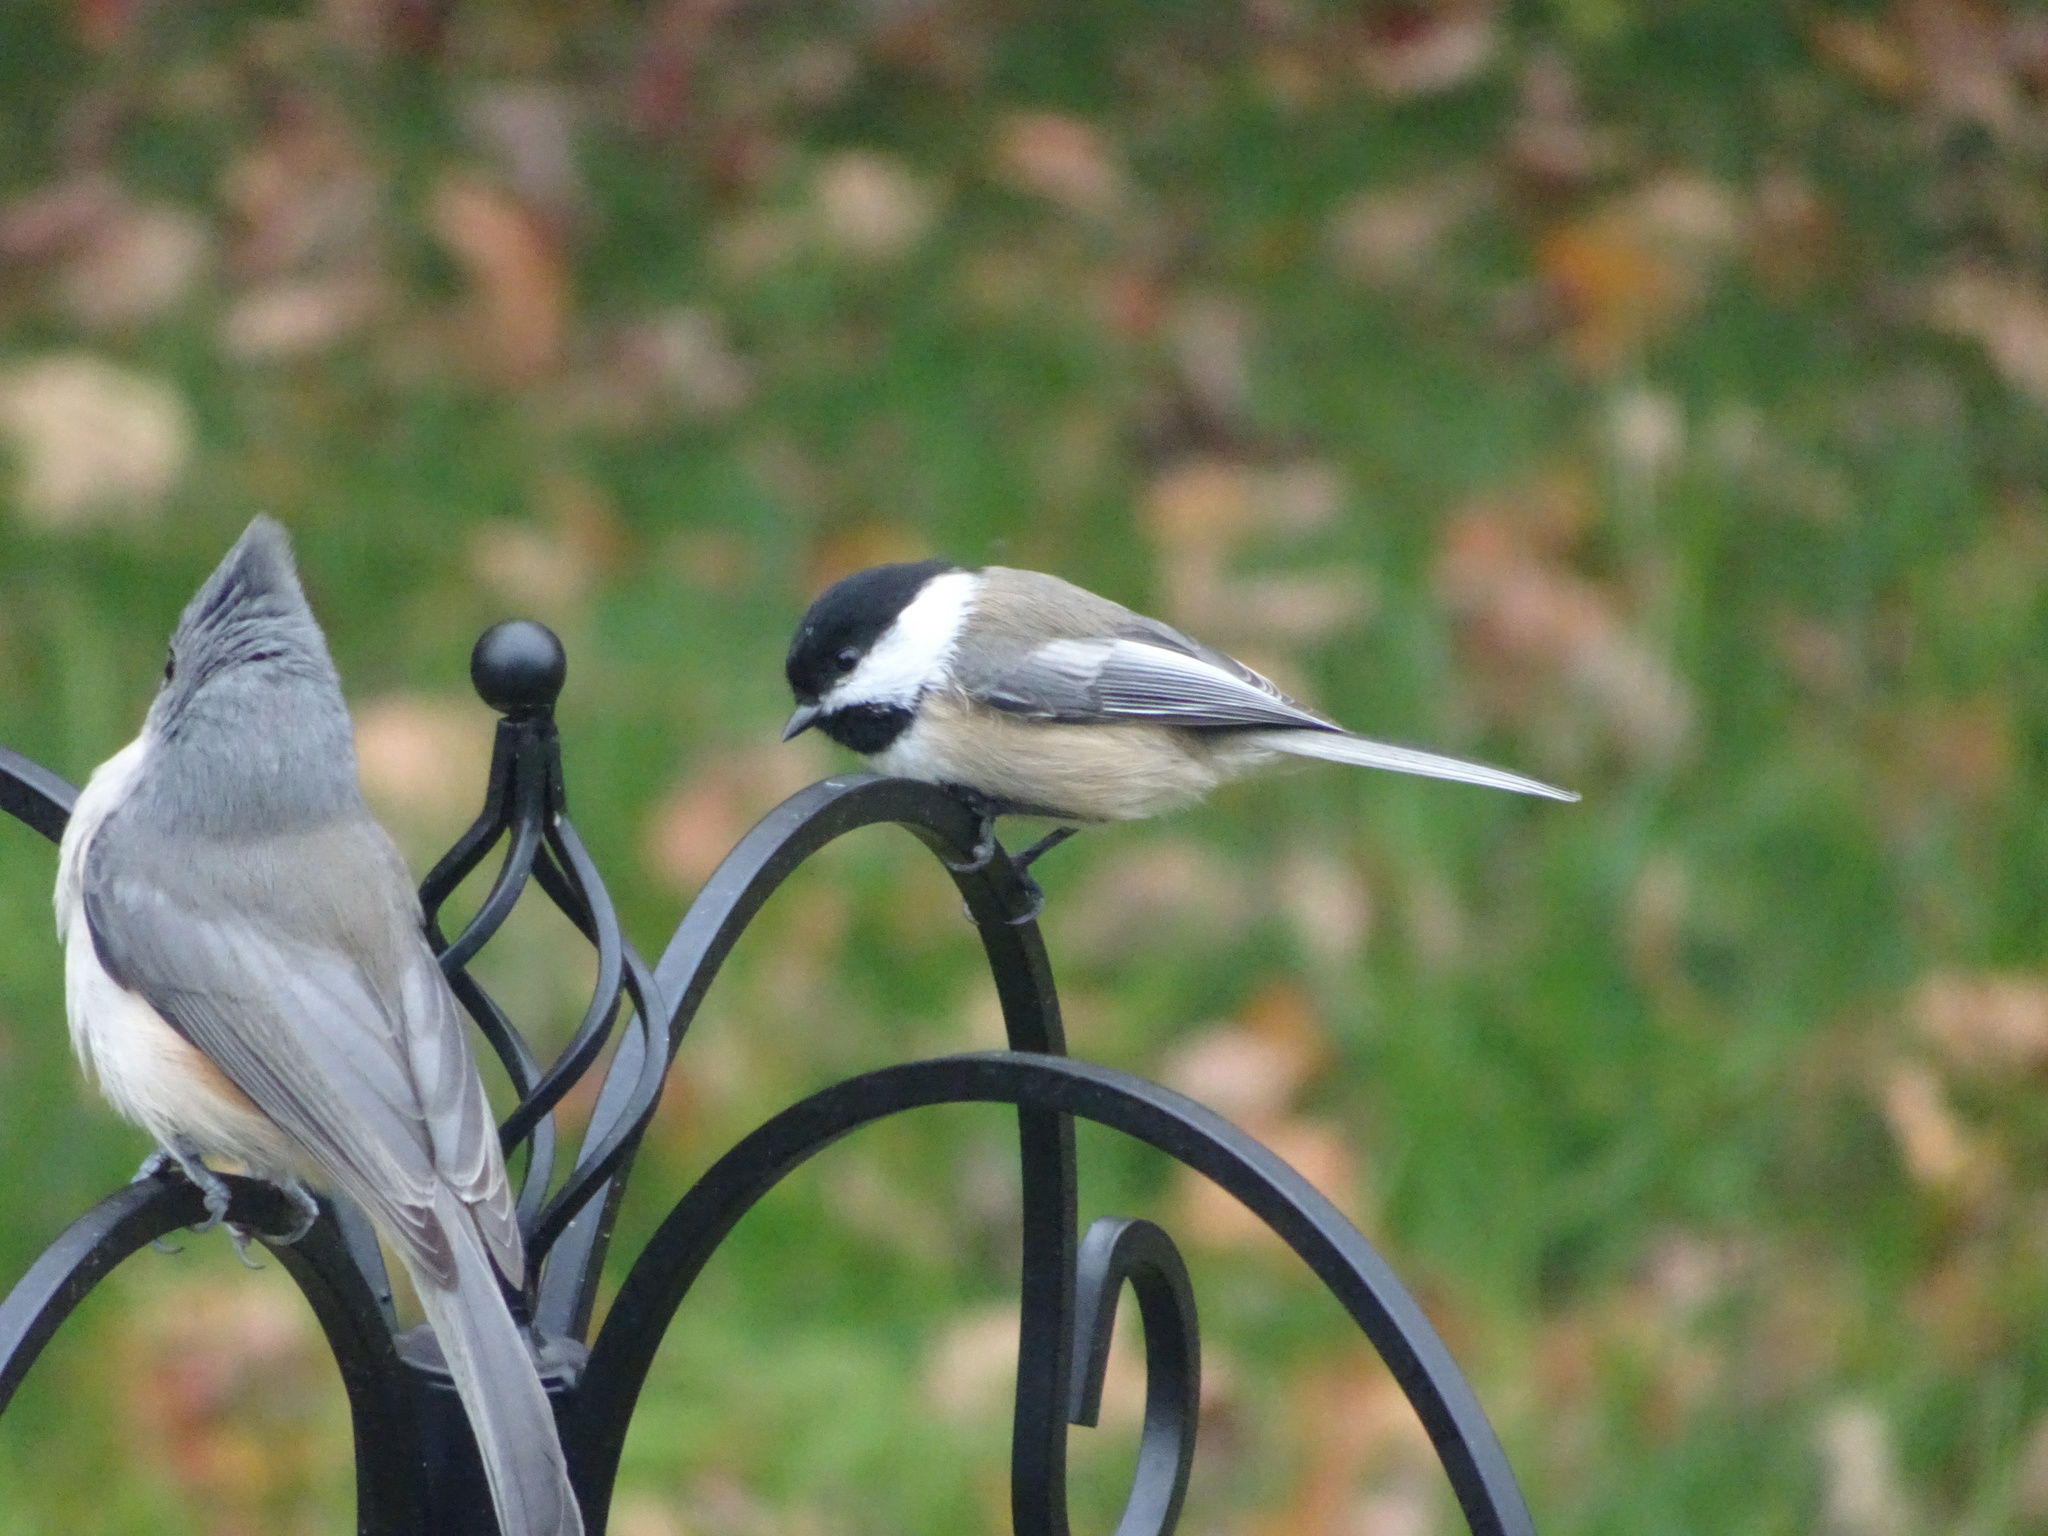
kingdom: Animalia
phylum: Chordata
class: Aves
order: Passeriformes
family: Paridae
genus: Poecile
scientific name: Poecile atricapillus
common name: Black-capped chickadee
